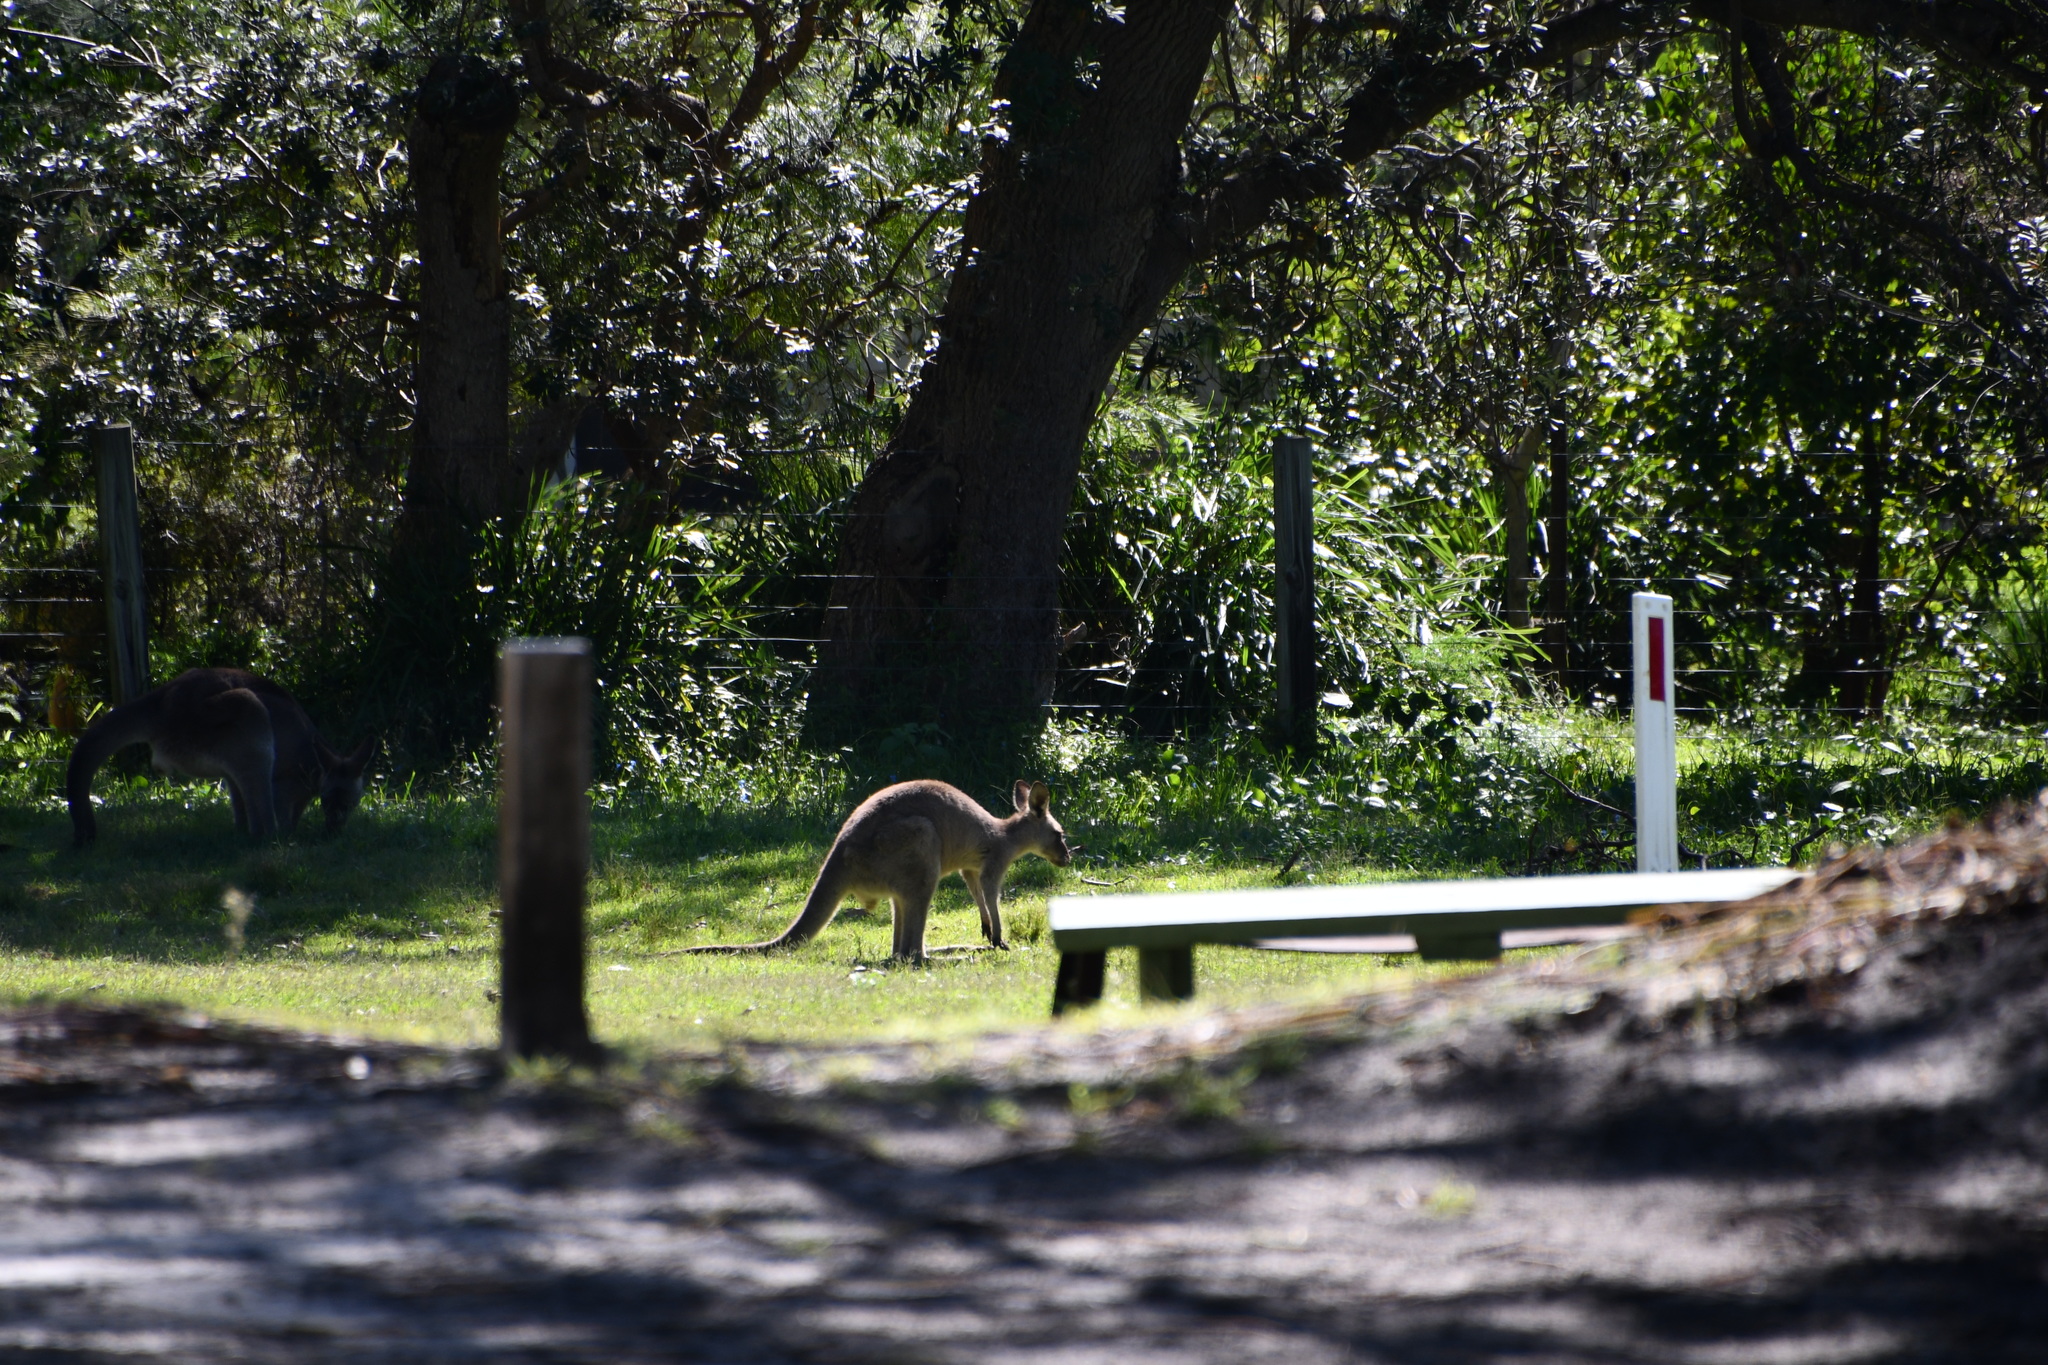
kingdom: Animalia
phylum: Chordata
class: Mammalia
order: Diprotodontia
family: Macropodidae
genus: Macropus
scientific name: Macropus giganteus
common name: Eastern grey kangaroo
